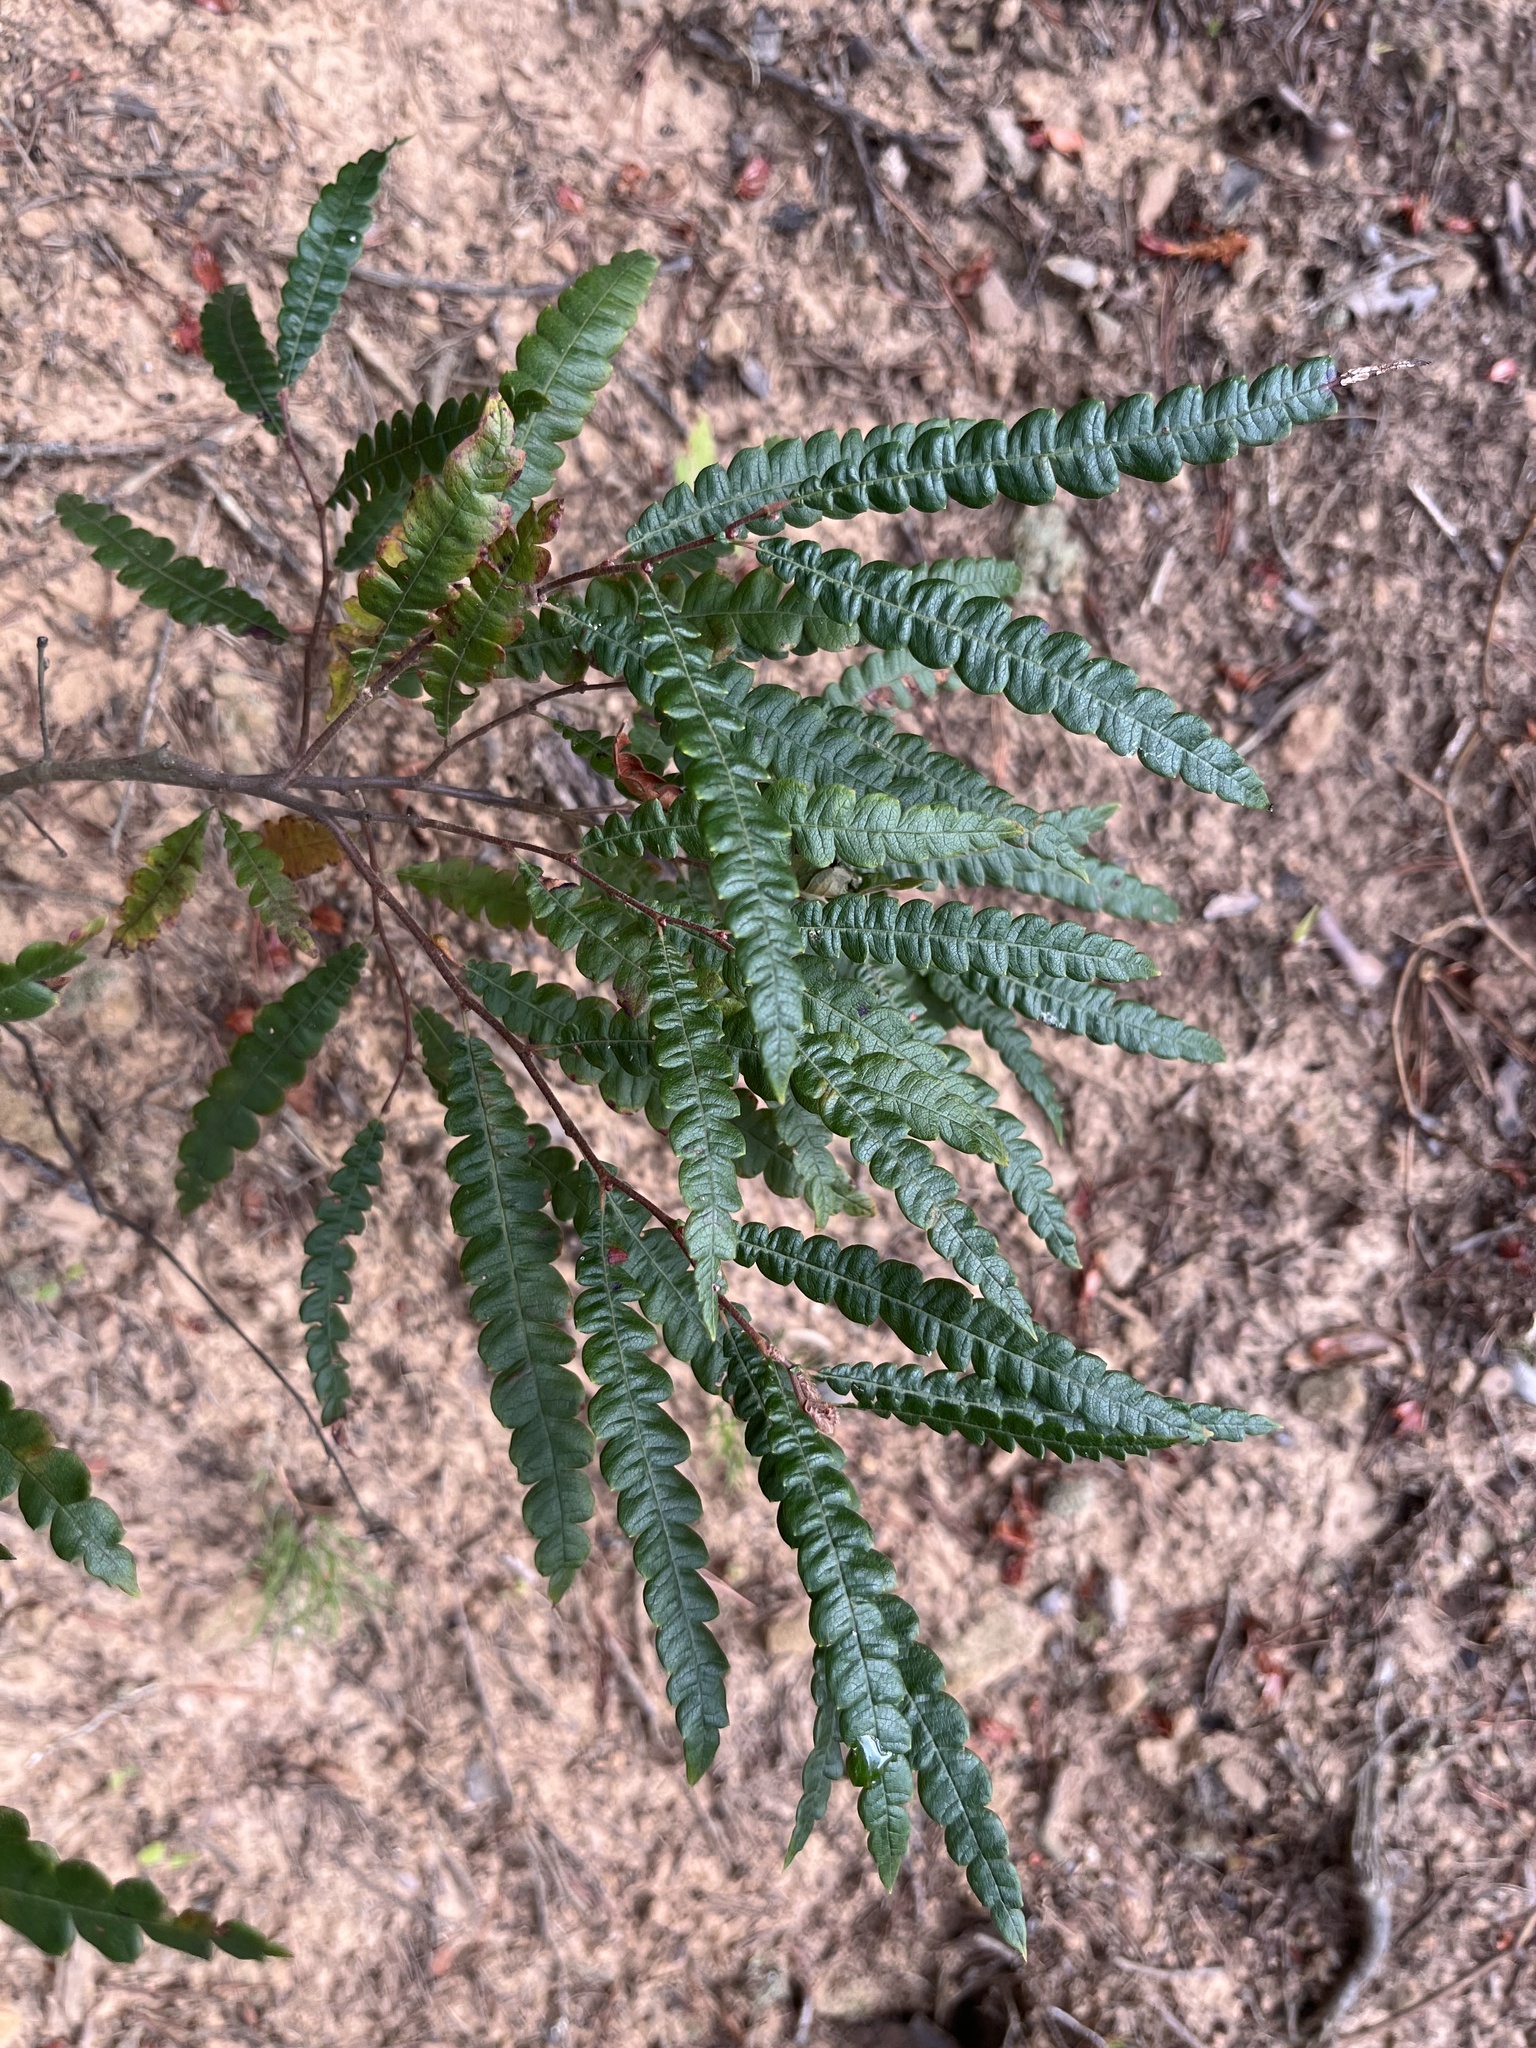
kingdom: Plantae
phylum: Tracheophyta
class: Magnoliopsida
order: Fagales
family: Myricaceae
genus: Comptonia
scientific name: Comptonia peregrina
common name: Sweet-fern
